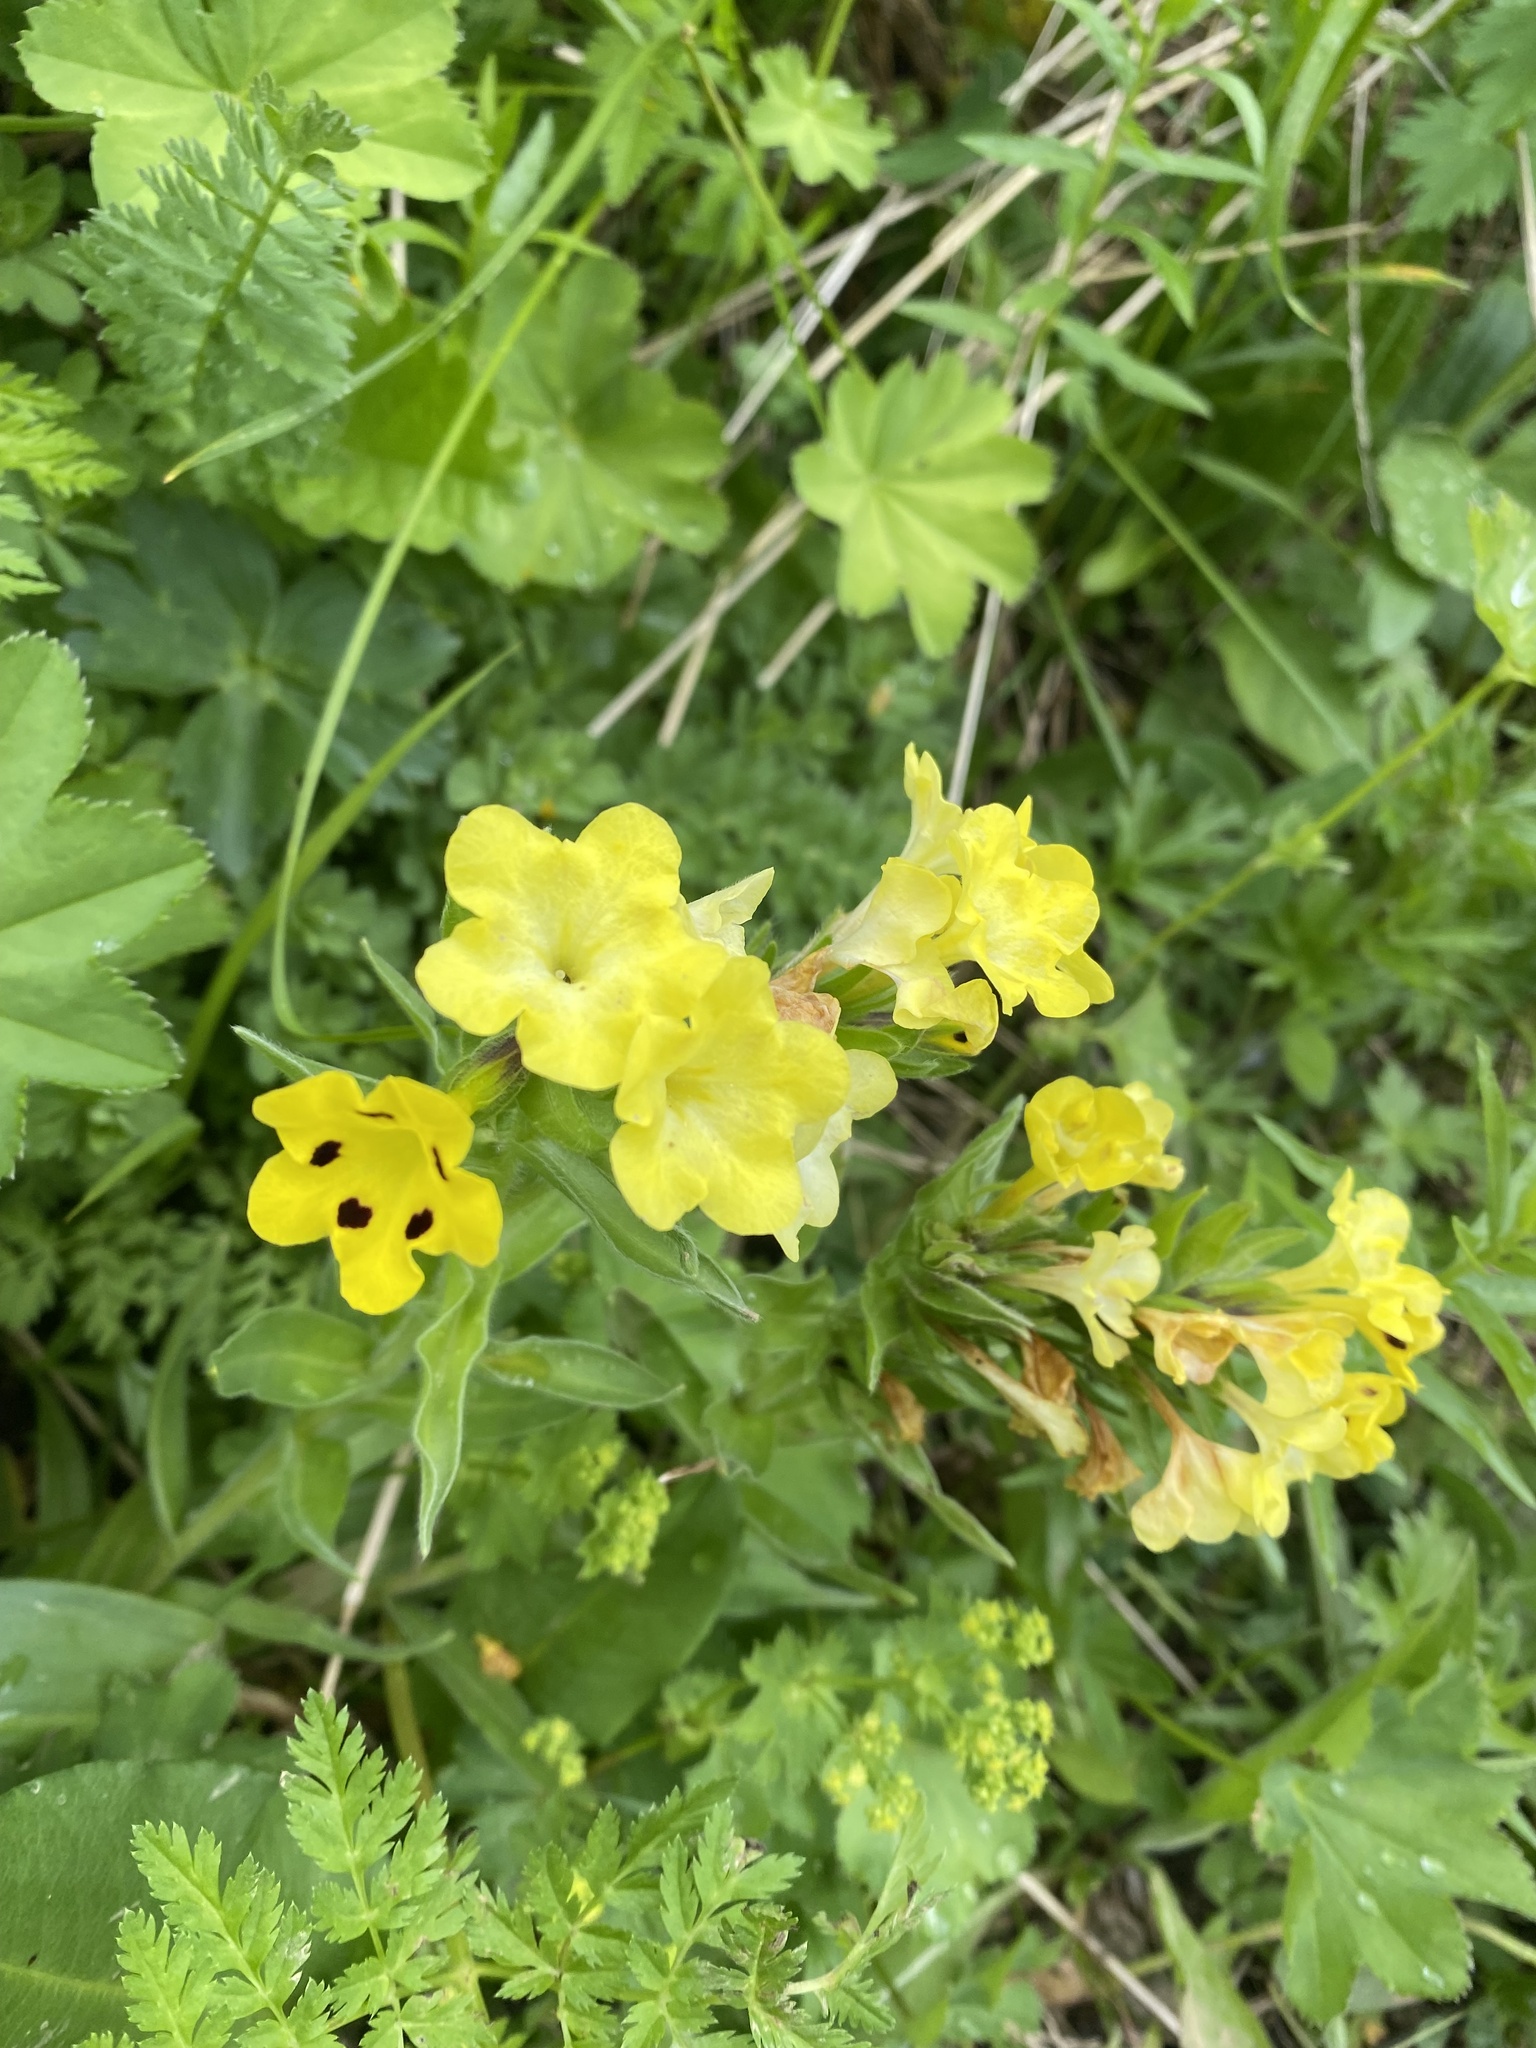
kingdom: Plantae
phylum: Tracheophyta
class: Magnoliopsida
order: Boraginales
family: Boraginaceae
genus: Huynhia
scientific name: Huynhia pulchra
